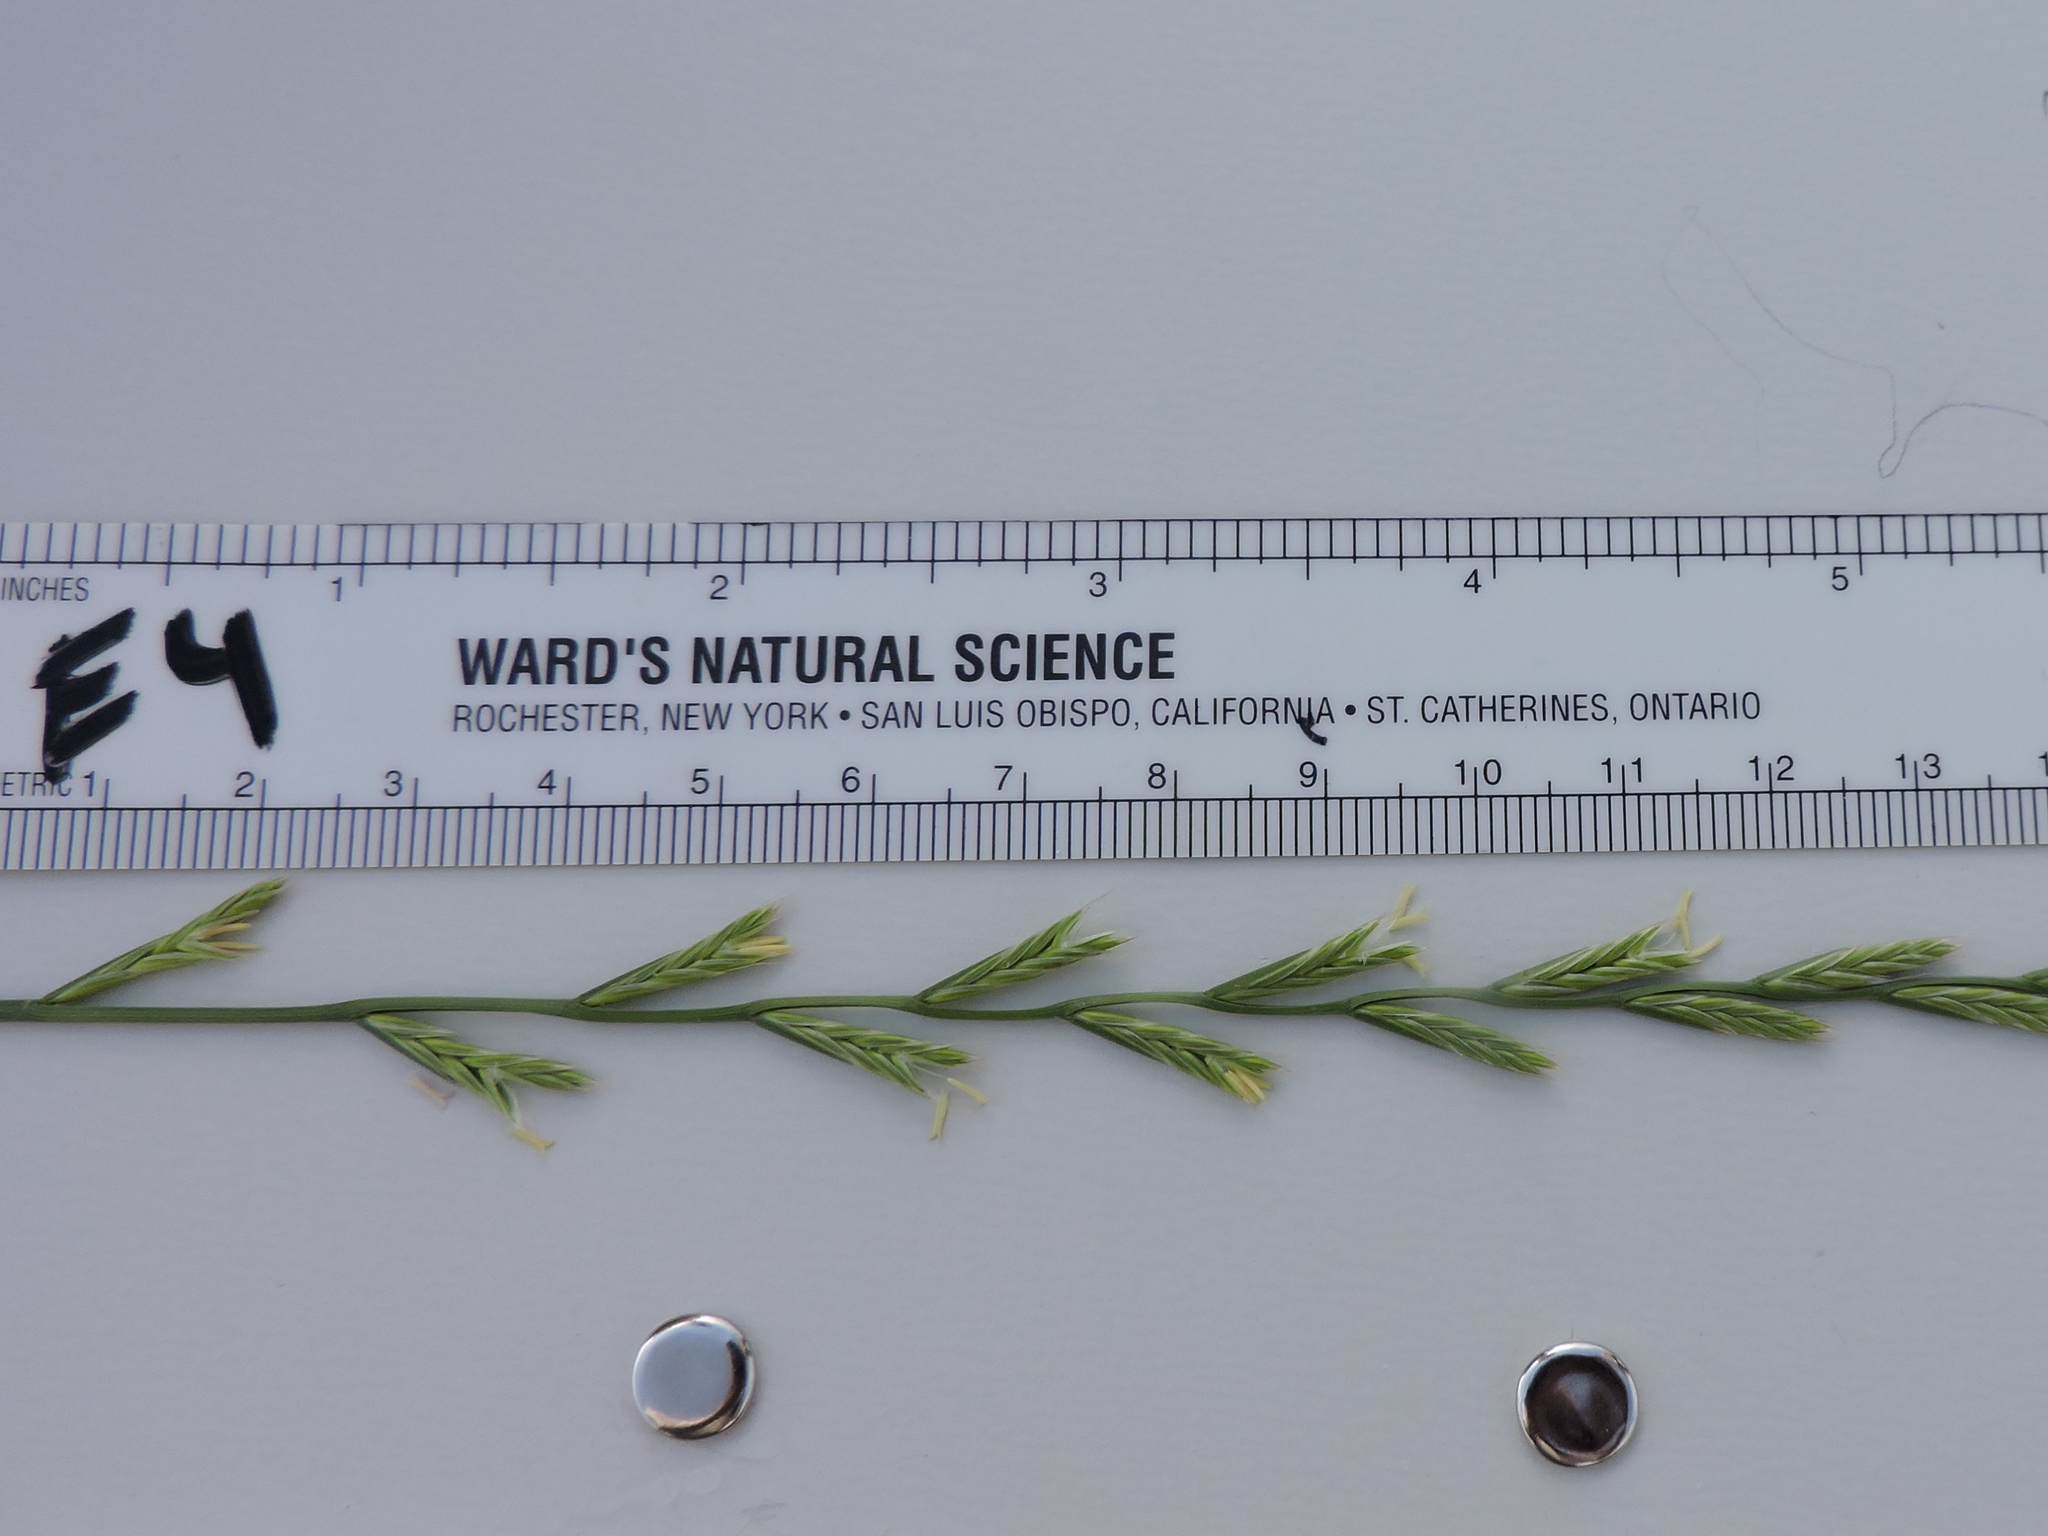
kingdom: Plantae
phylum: Tracheophyta
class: Liliopsida
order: Poales
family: Poaceae
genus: Lolium
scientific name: Lolium perenne
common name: Perennial ryegrass
